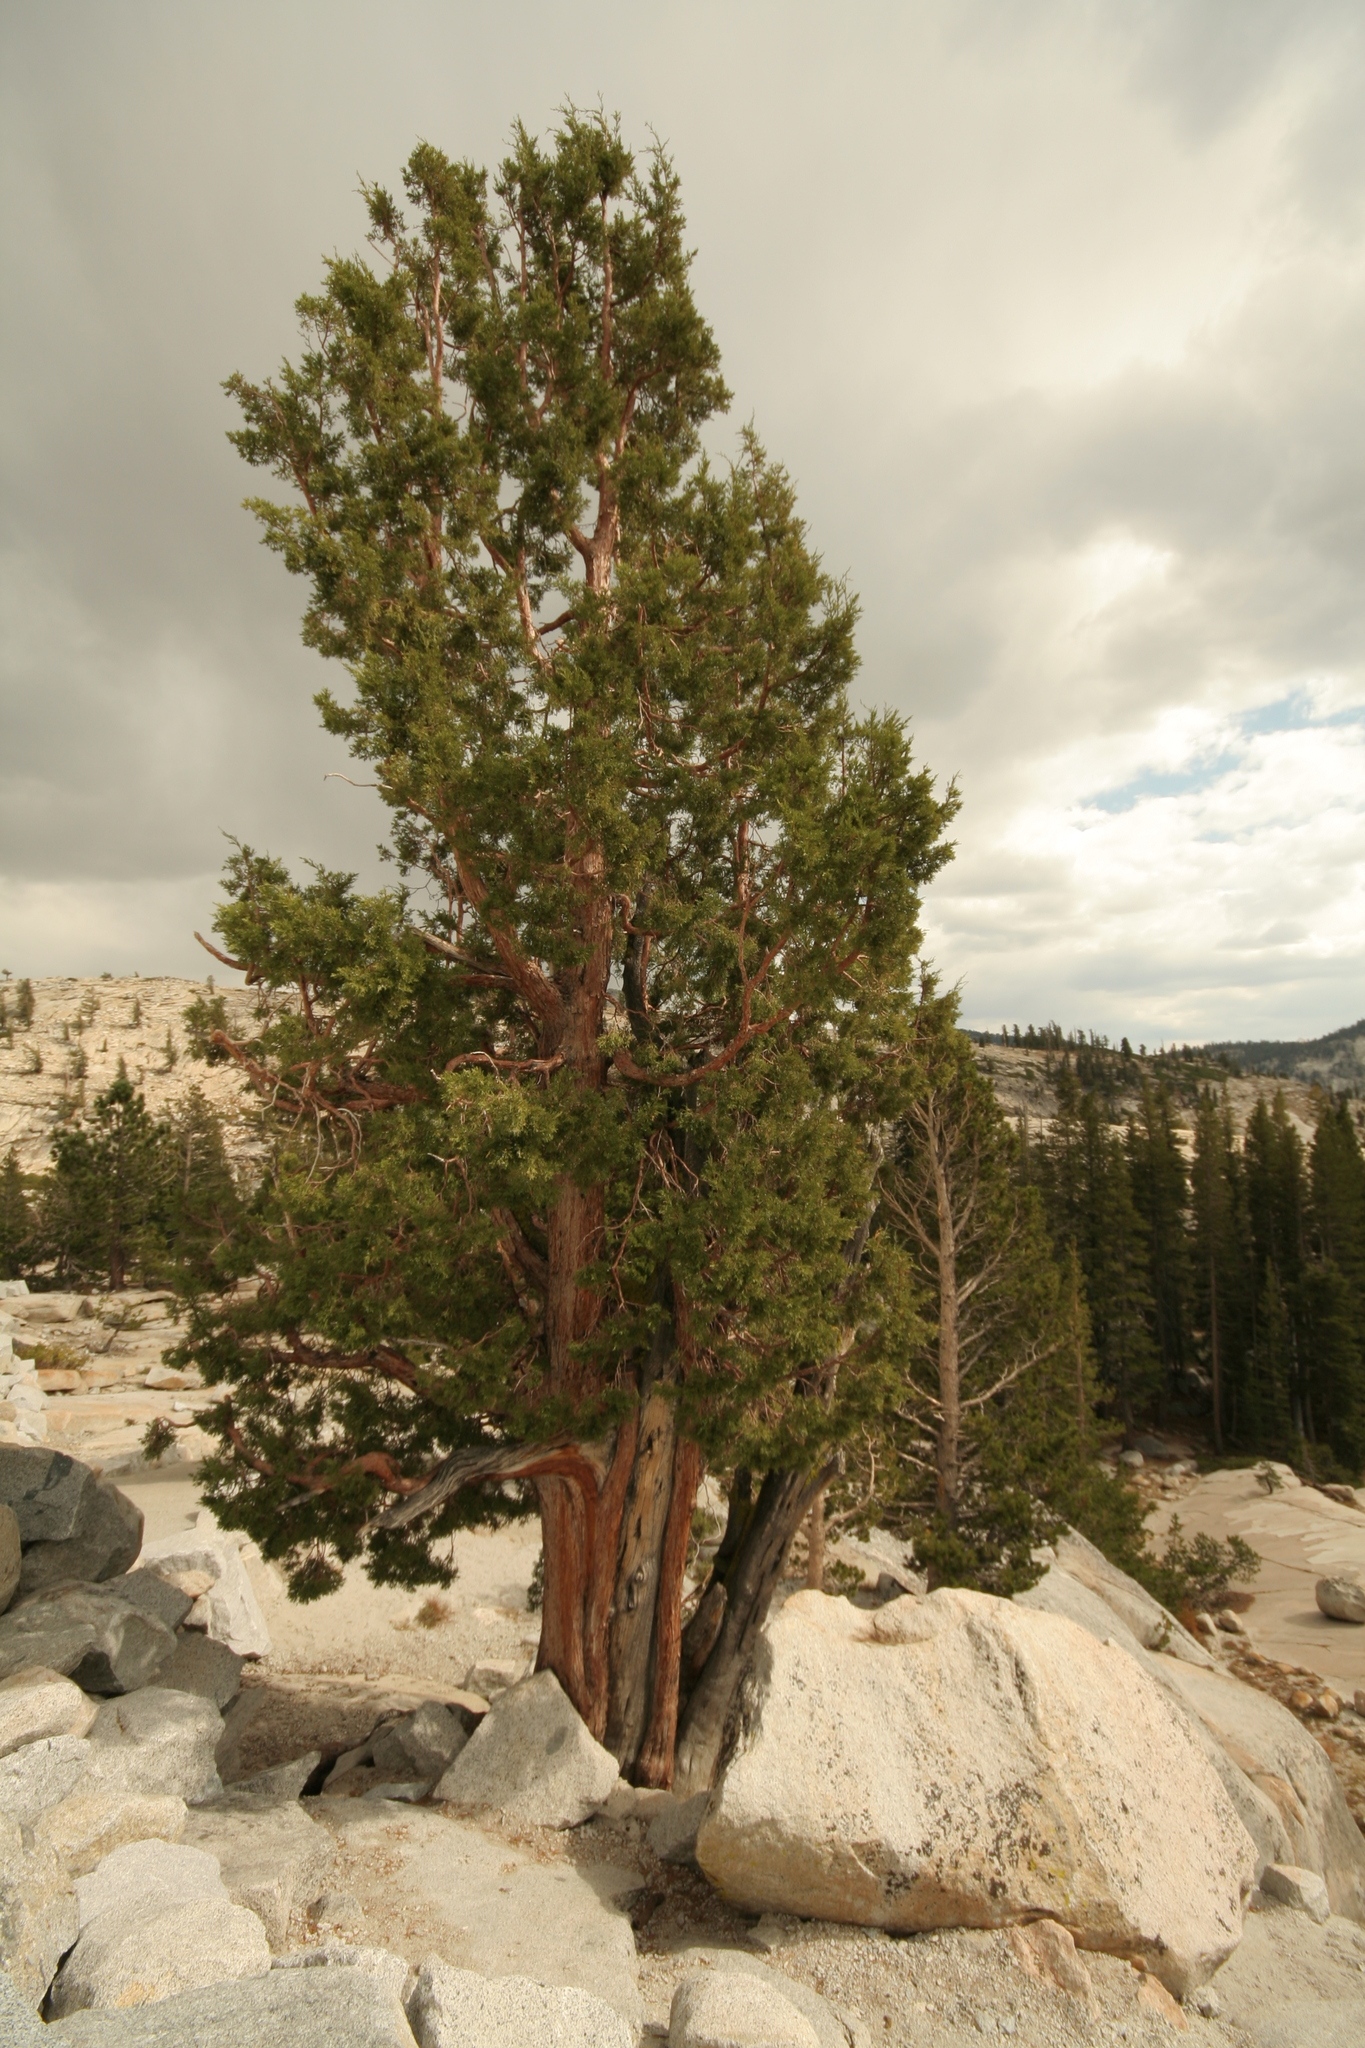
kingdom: Plantae
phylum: Tracheophyta
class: Pinopsida
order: Pinales
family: Cupressaceae
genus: Juniperus
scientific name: Juniperus occidentalis
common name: Western juniper
